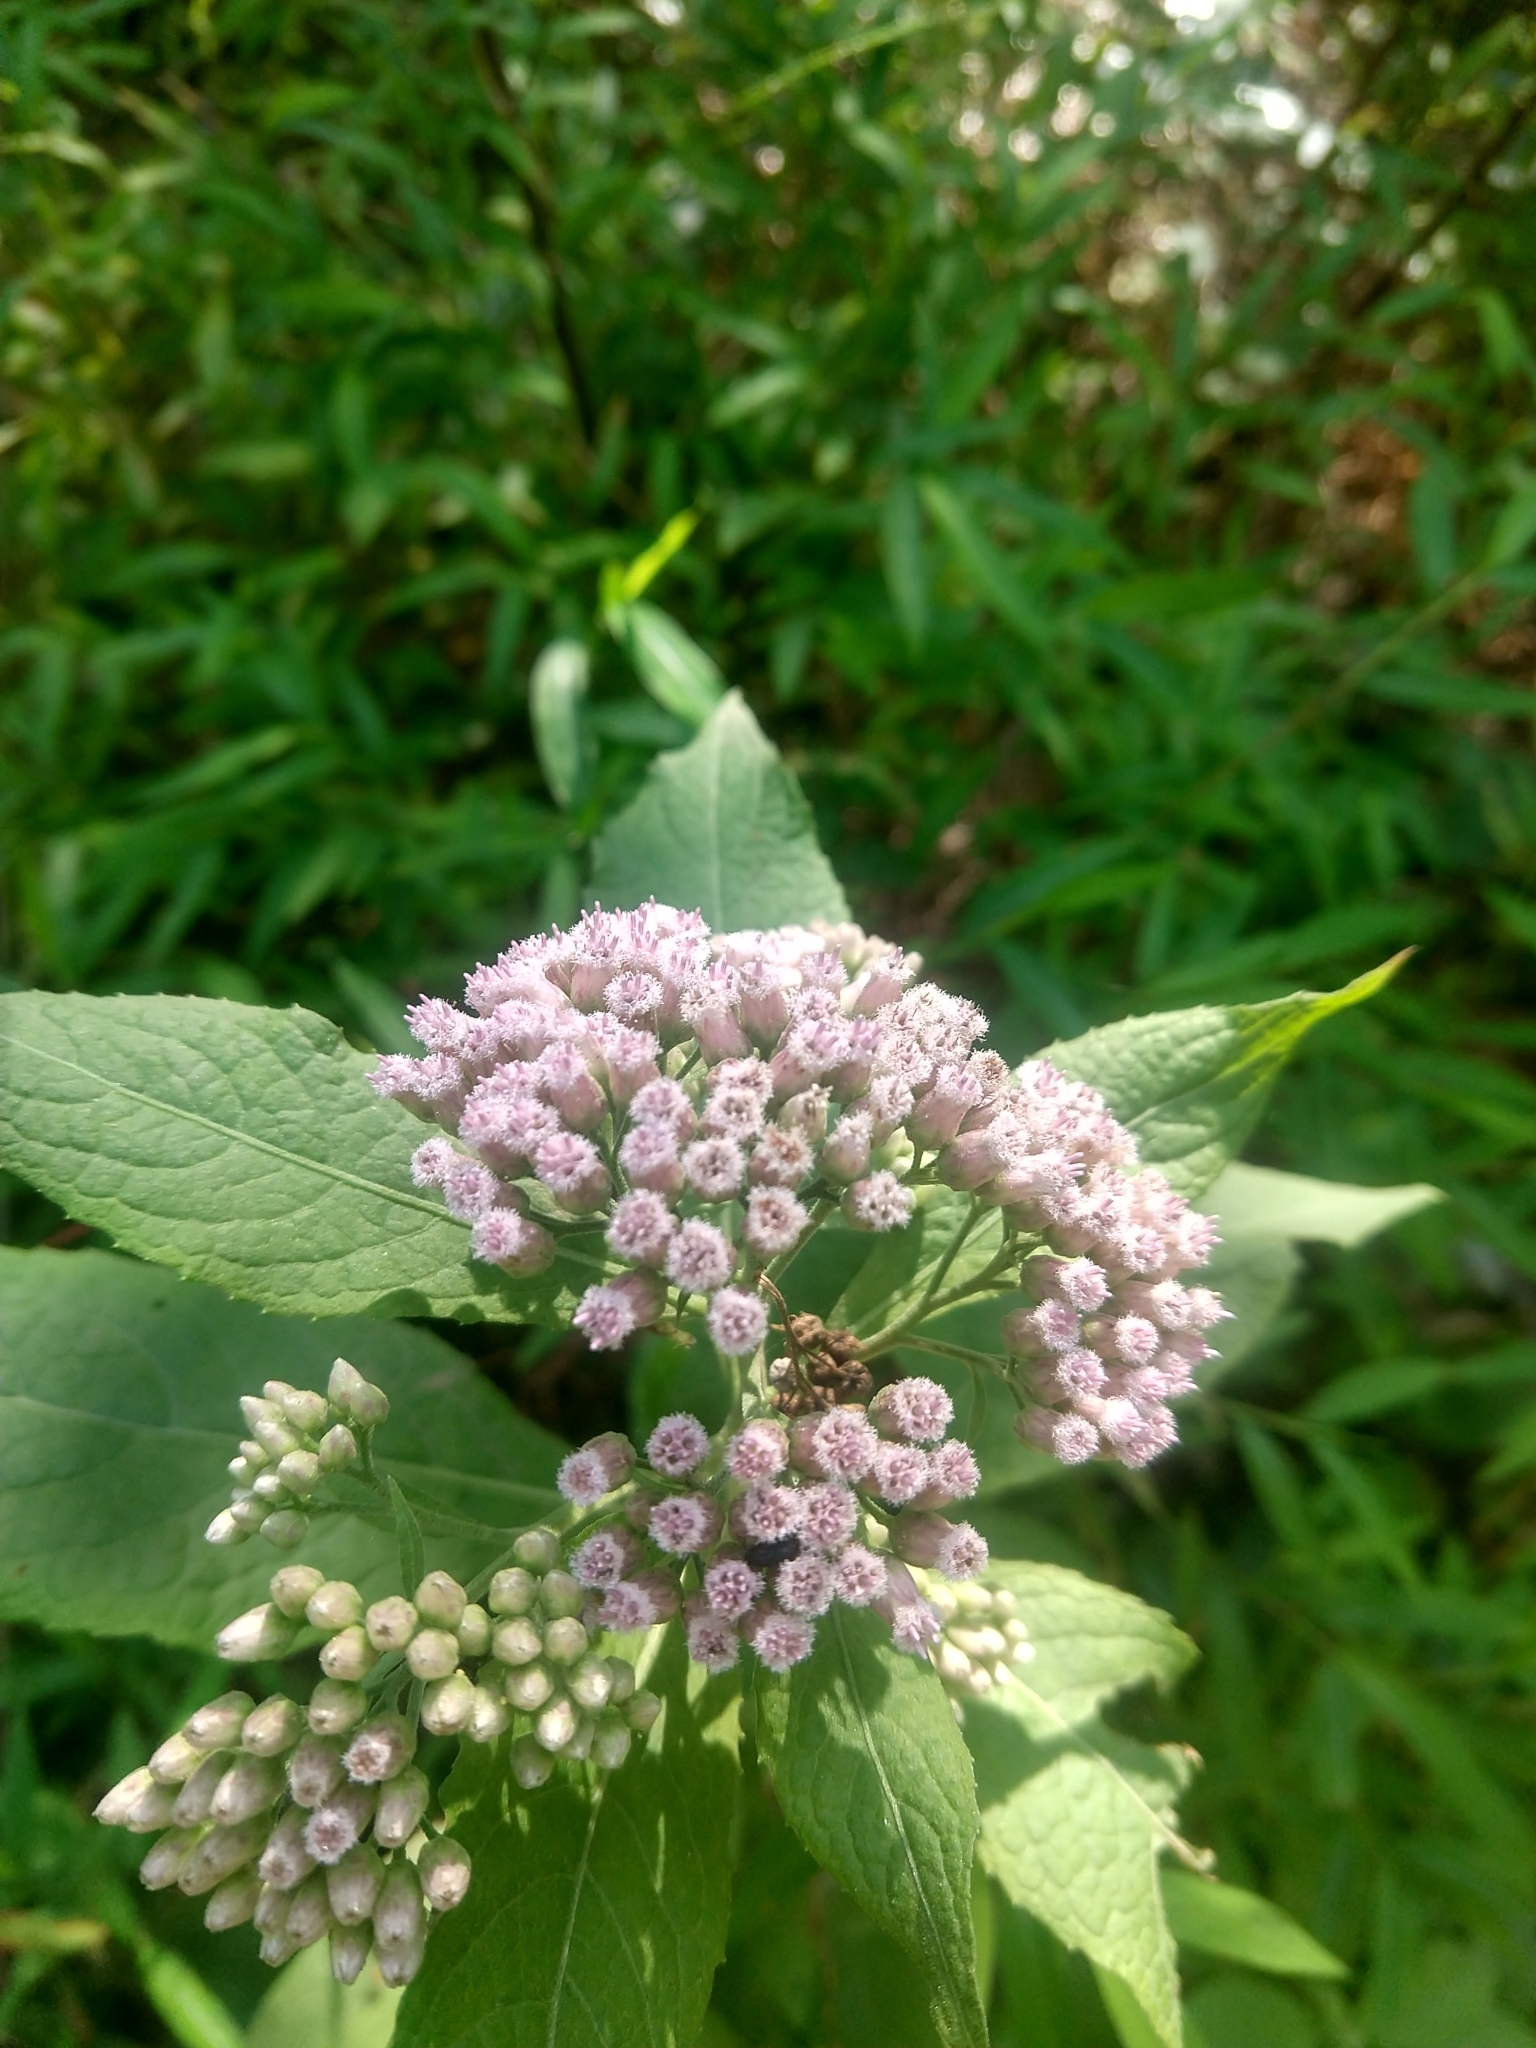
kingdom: Plantae
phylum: Tracheophyta
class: Magnoliopsida
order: Asterales
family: Asteraceae
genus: Pluchea
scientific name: Pluchea camphorata
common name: Camphor pluchea
